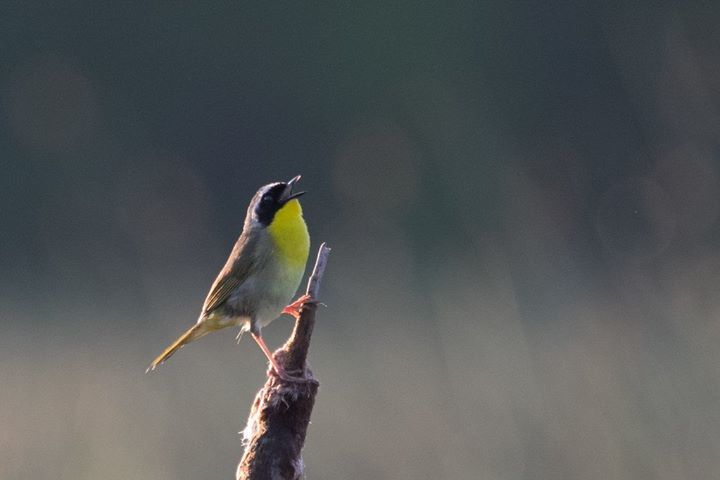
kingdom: Animalia
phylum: Chordata
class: Aves
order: Passeriformes
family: Parulidae
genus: Geothlypis
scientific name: Geothlypis trichas
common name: Common yellowthroat
